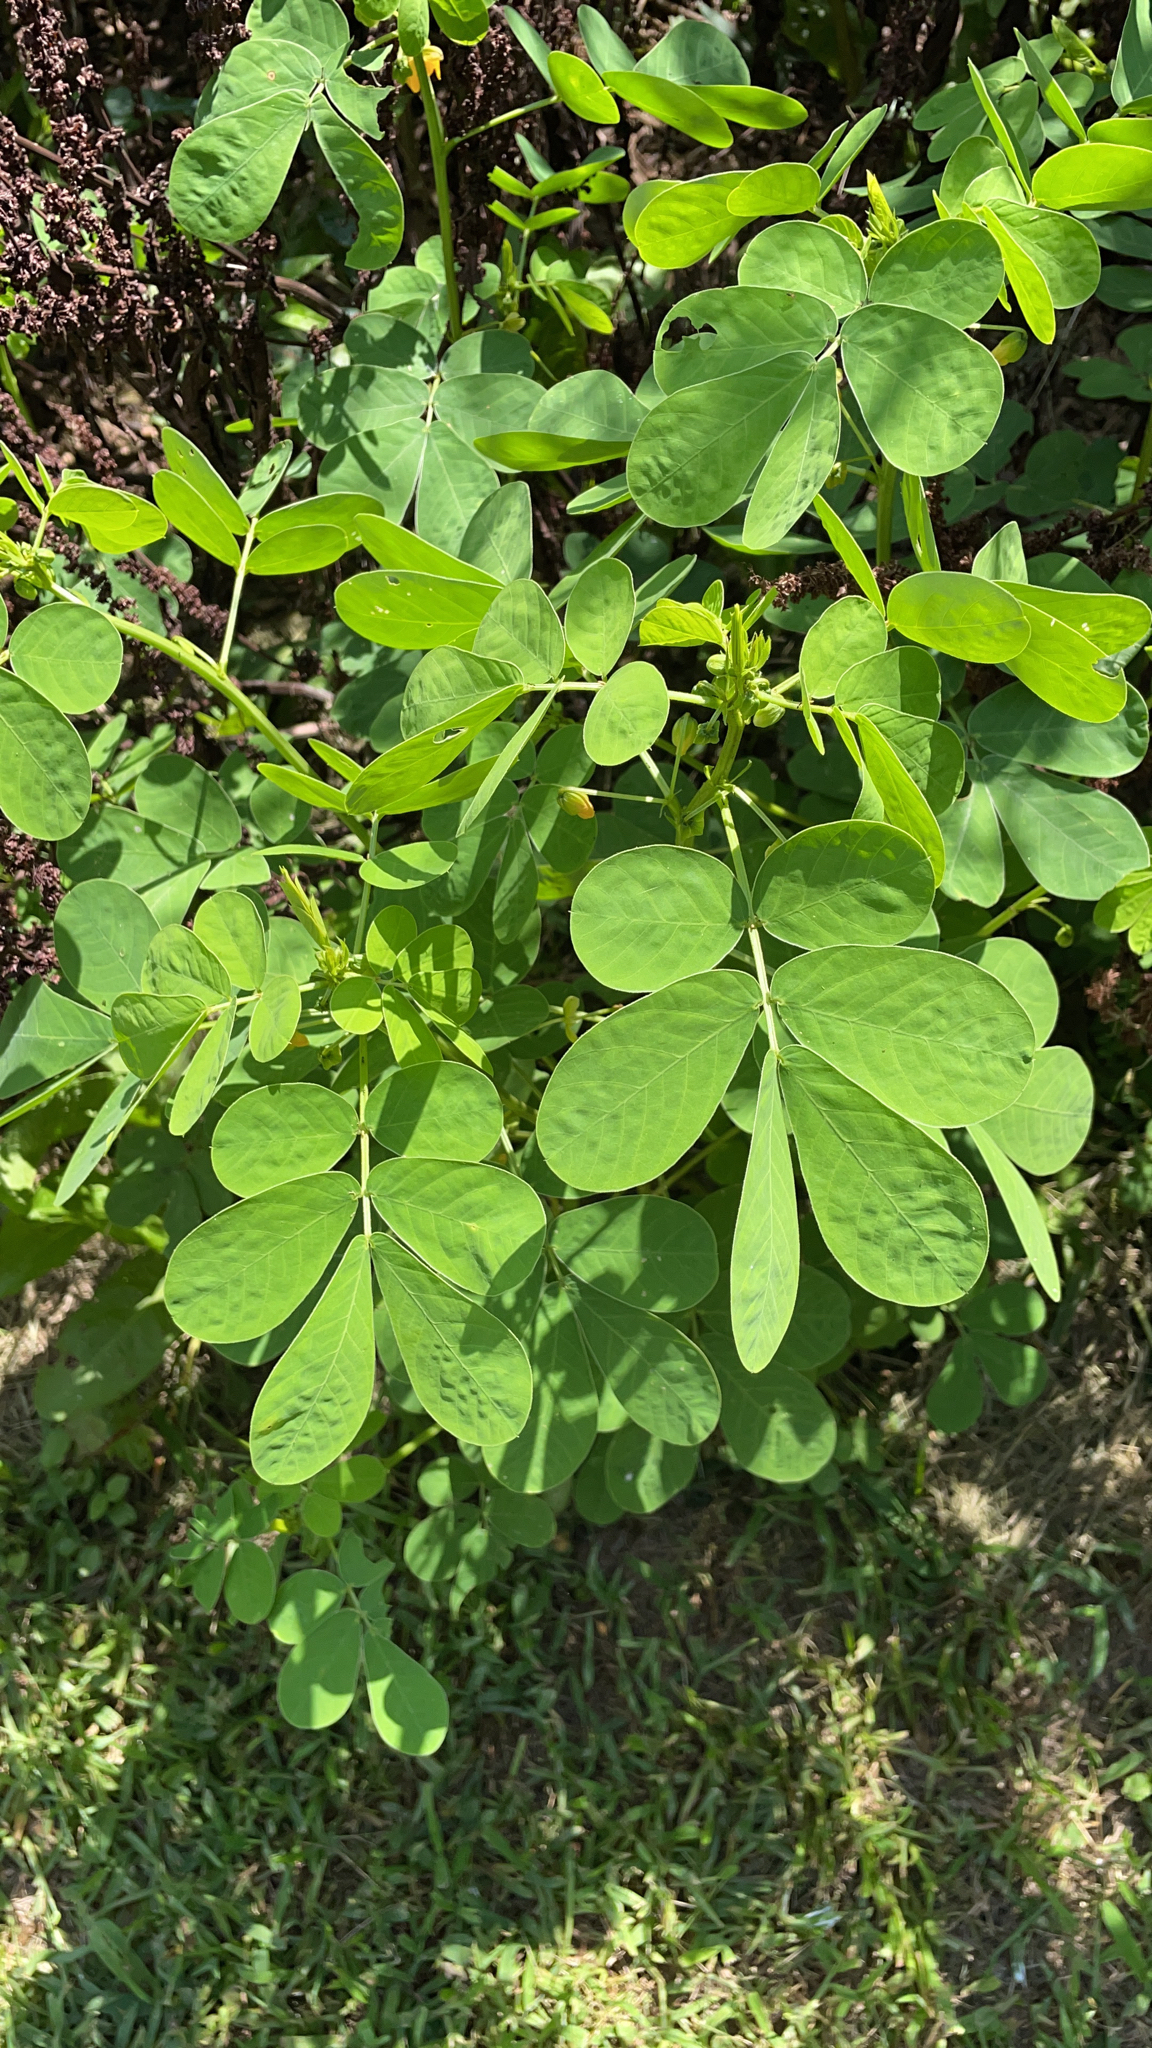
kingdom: Plantae
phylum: Tracheophyta
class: Magnoliopsida
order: Fabales
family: Fabaceae
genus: Senna
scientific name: Senna obtusifolia
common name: Java-bean
